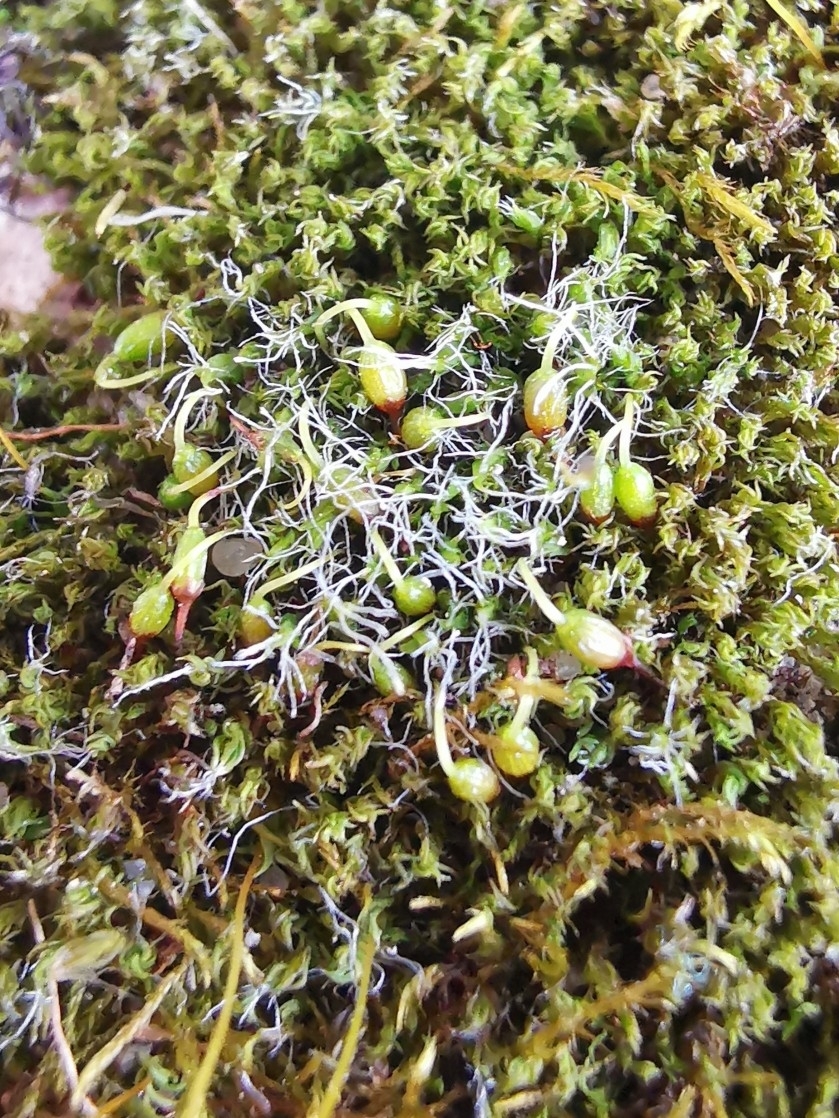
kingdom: Plantae
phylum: Bryophyta
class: Bryopsida
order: Grimmiales
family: Grimmiaceae
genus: Grimmia
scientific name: Grimmia pulvinata
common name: Grey-cushioned grimmia
